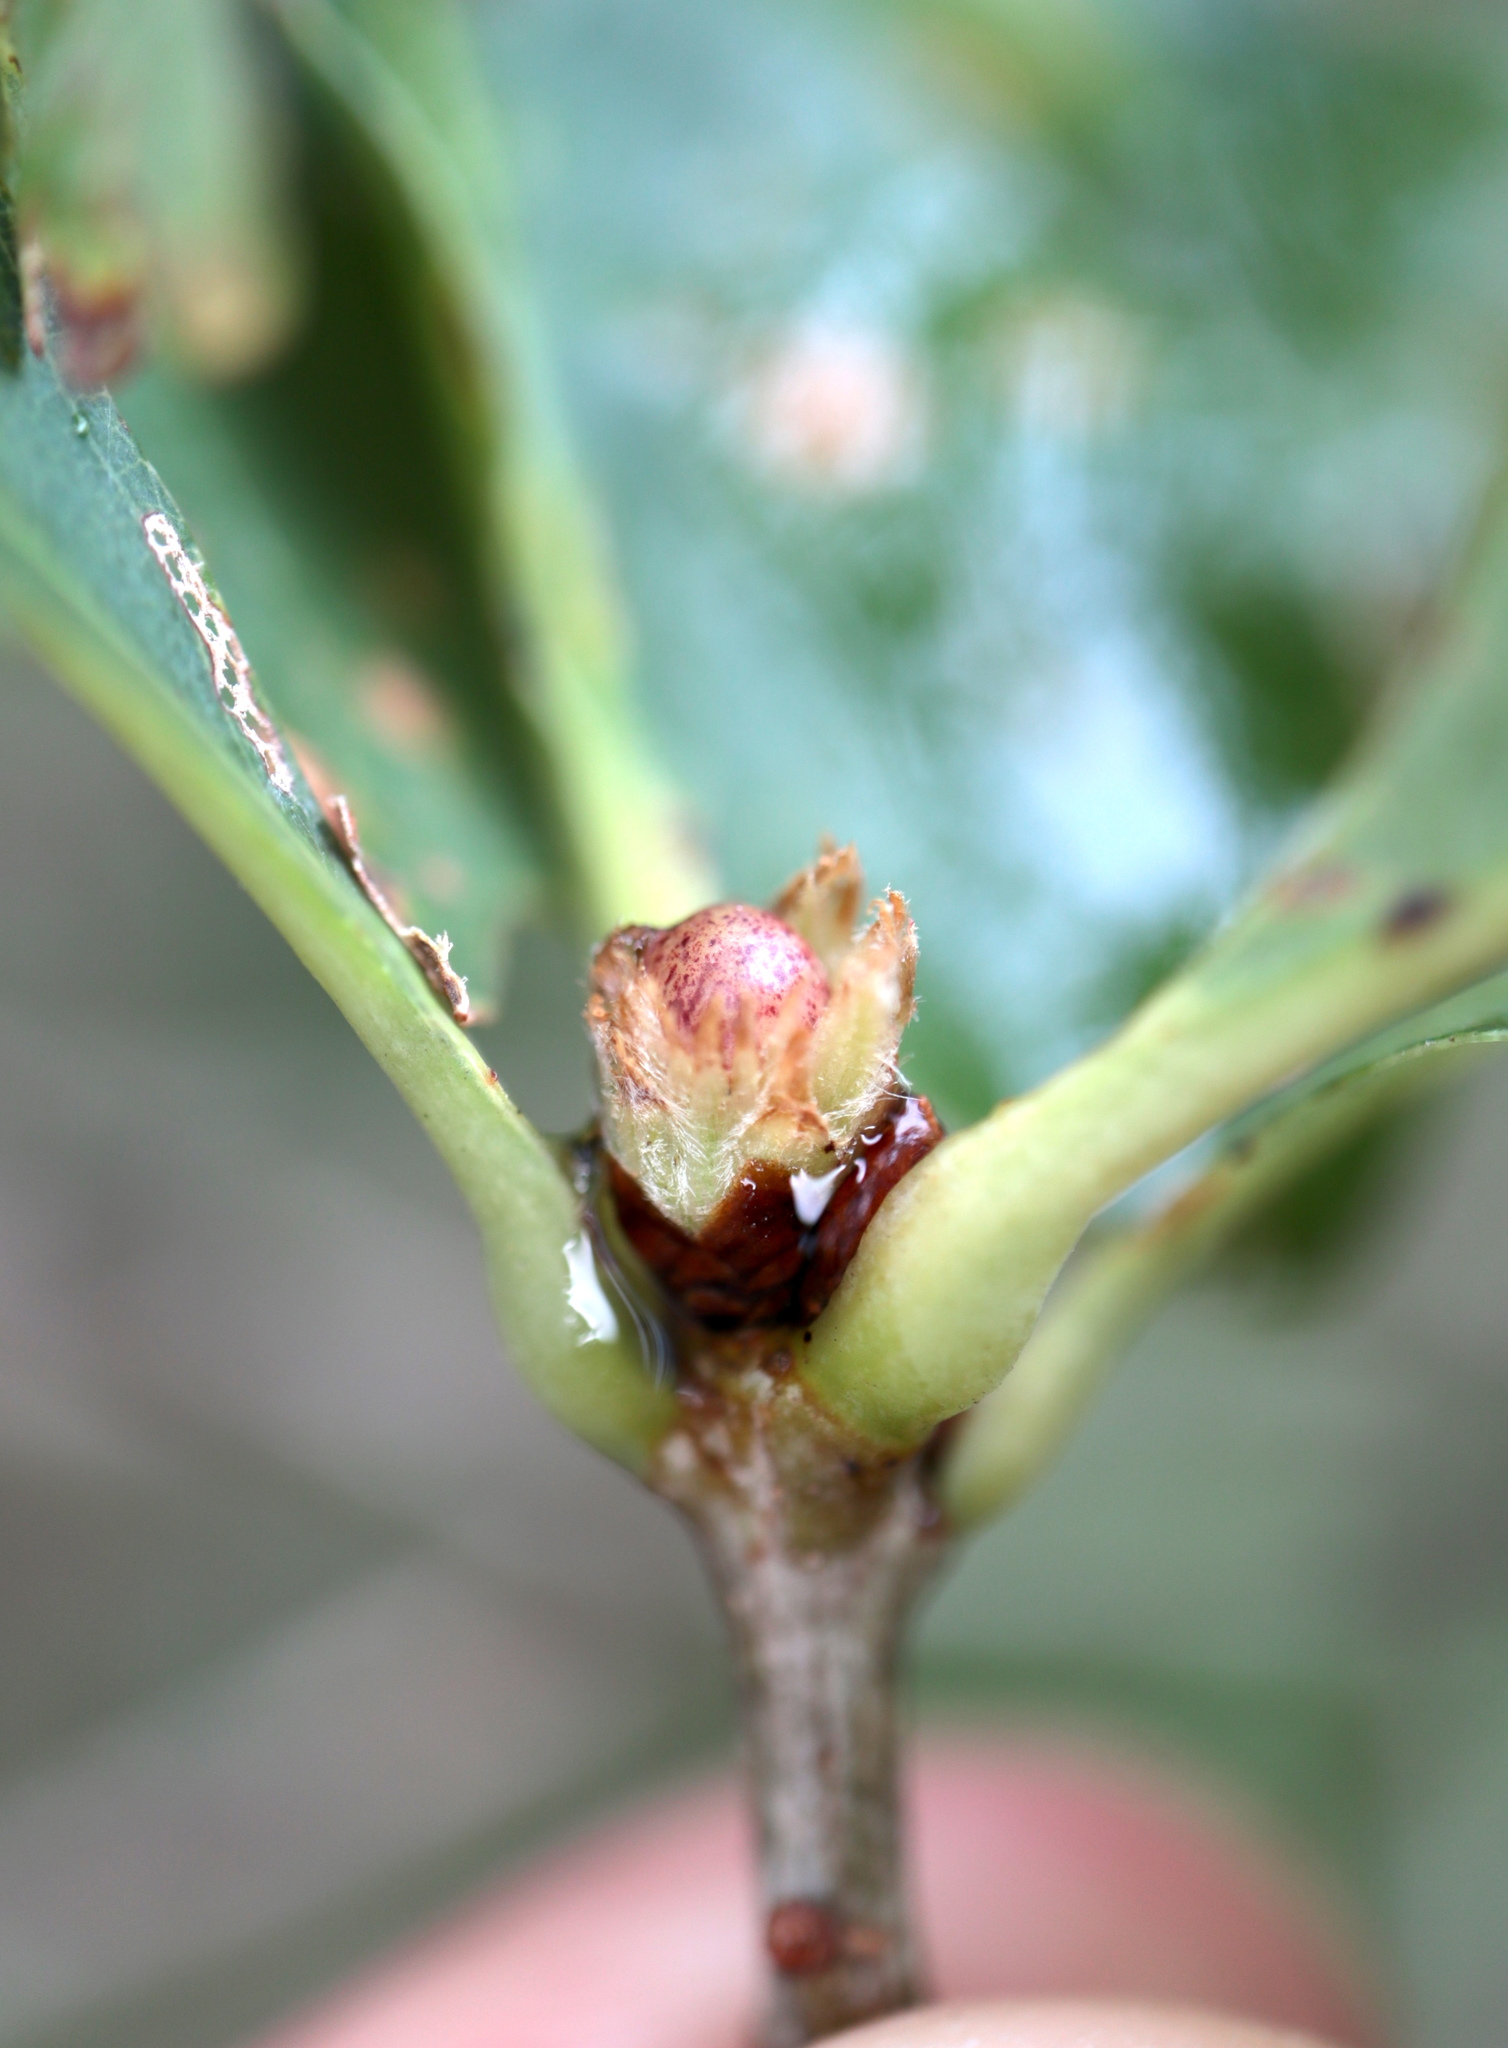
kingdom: Animalia
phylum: Arthropoda
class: Insecta
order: Hymenoptera
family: Cynipidae
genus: Andricus
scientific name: Andricus
